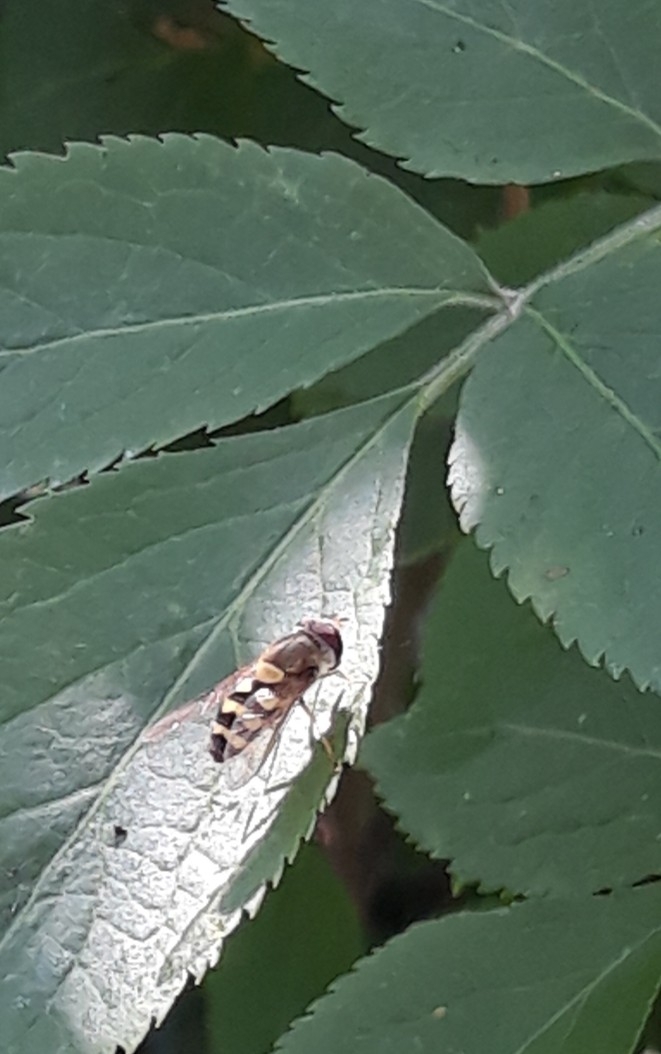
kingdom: Animalia
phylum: Arthropoda
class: Insecta
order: Diptera
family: Syrphidae
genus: Syrphus
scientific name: Syrphus
